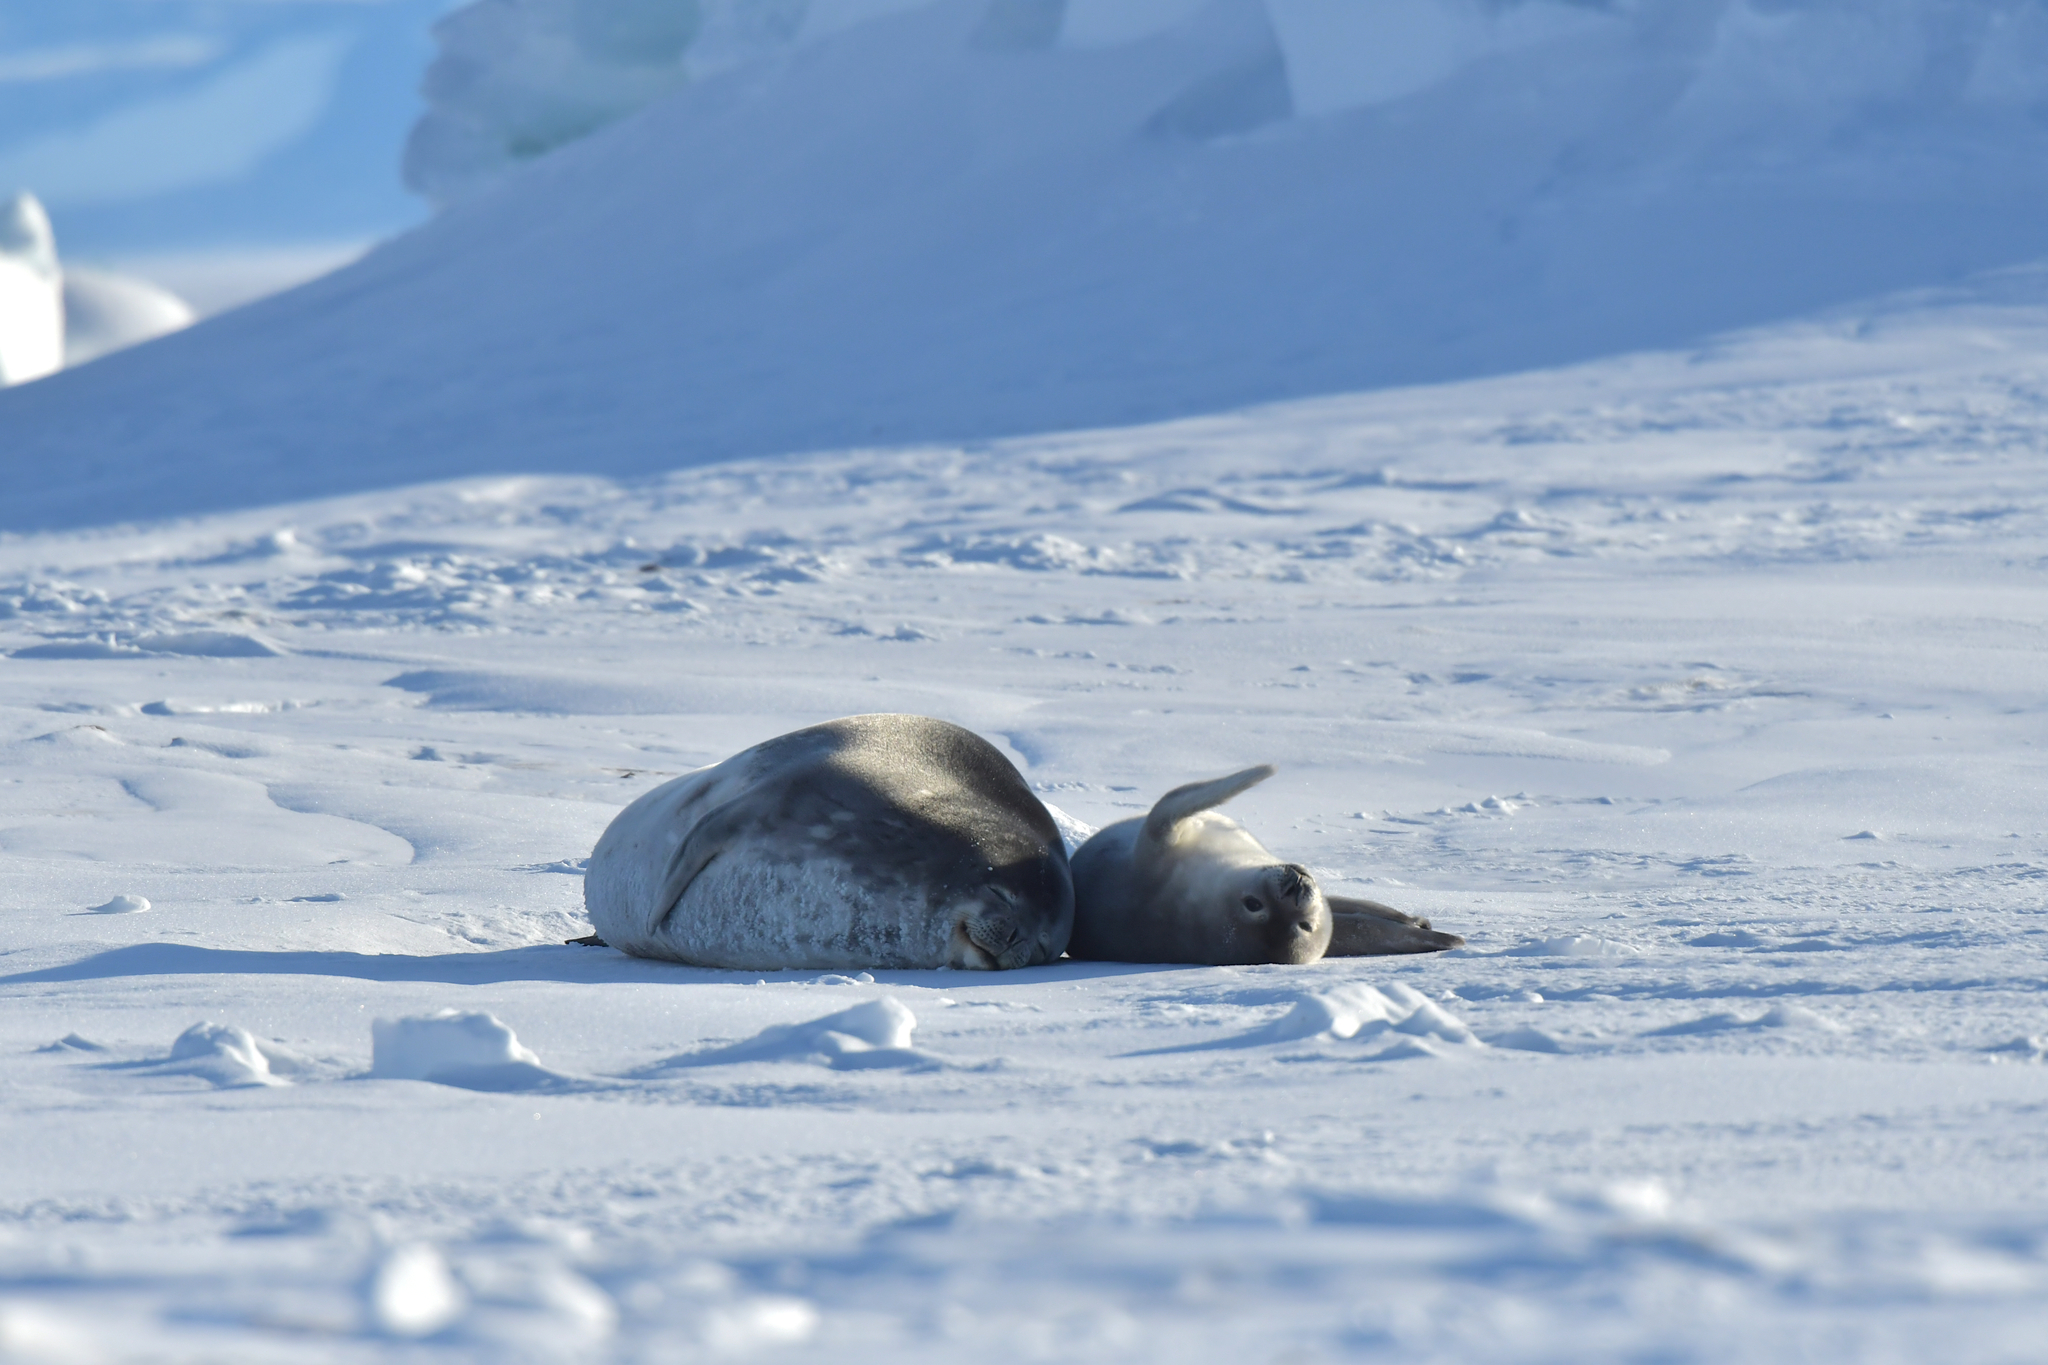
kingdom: Animalia
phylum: Chordata
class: Mammalia
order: Carnivora
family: Phocidae
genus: Leptonychotes
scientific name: Leptonychotes weddellii
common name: Weddell seal
